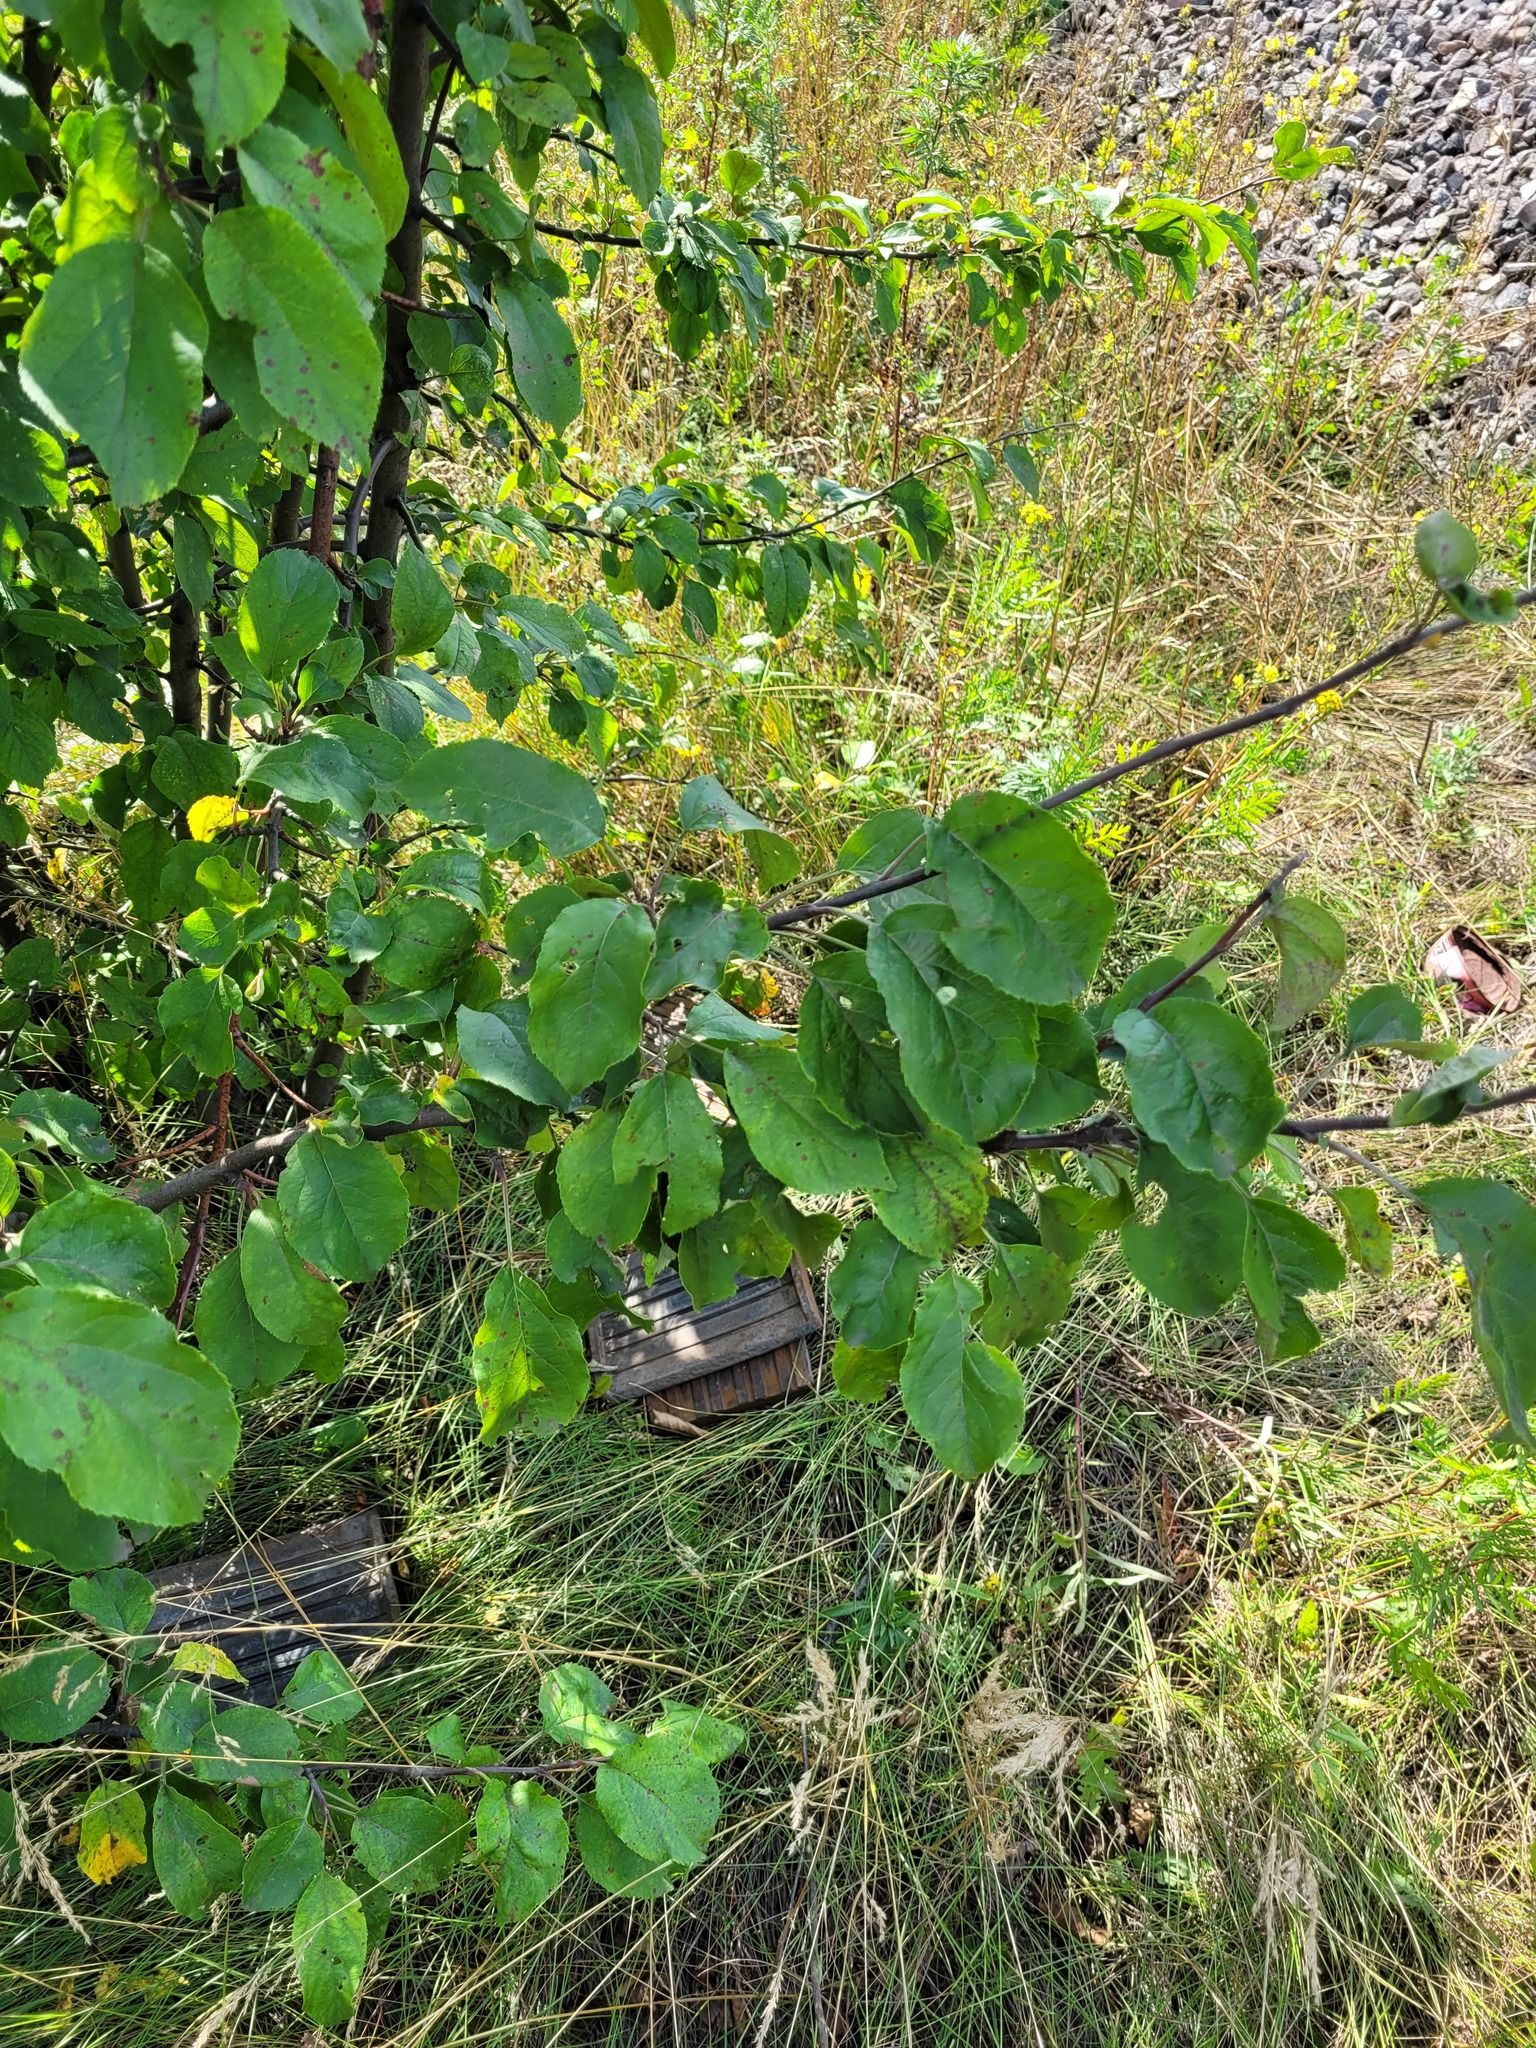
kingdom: Plantae
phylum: Tracheophyta
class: Magnoliopsida
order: Rosales
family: Rosaceae
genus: Malus
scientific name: Malus domestica
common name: Apple
